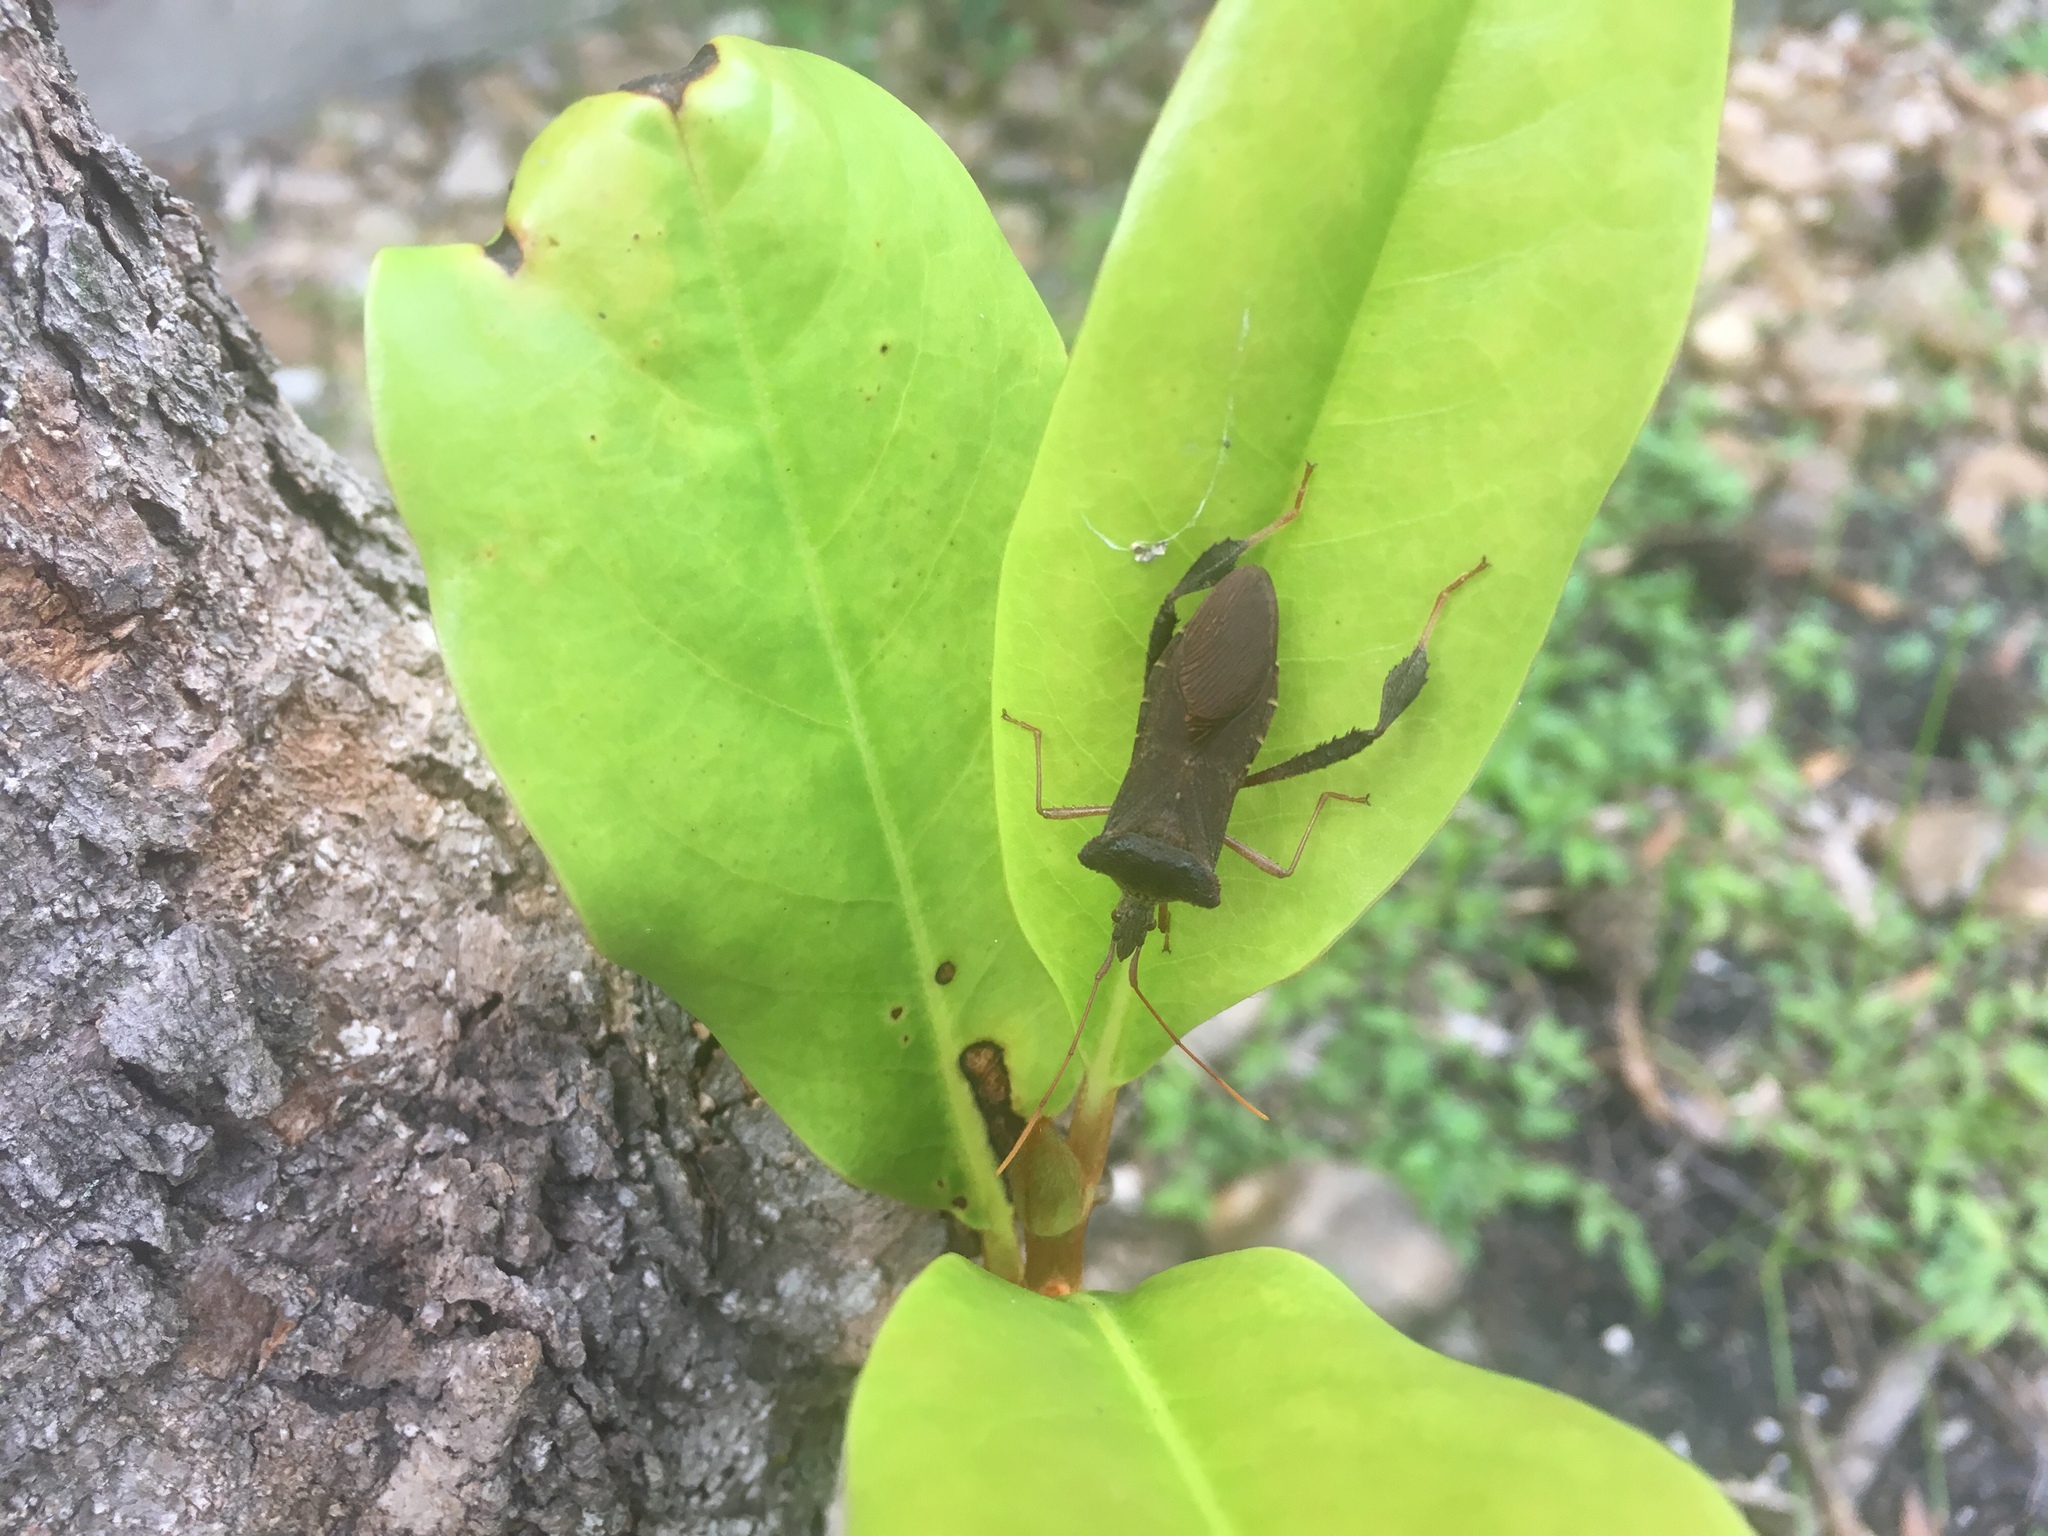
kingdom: Animalia
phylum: Arthropoda
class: Insecta
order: Hemiptera
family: Coreidae
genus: Leptoglossus
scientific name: Leptoglossus fulvicornis
